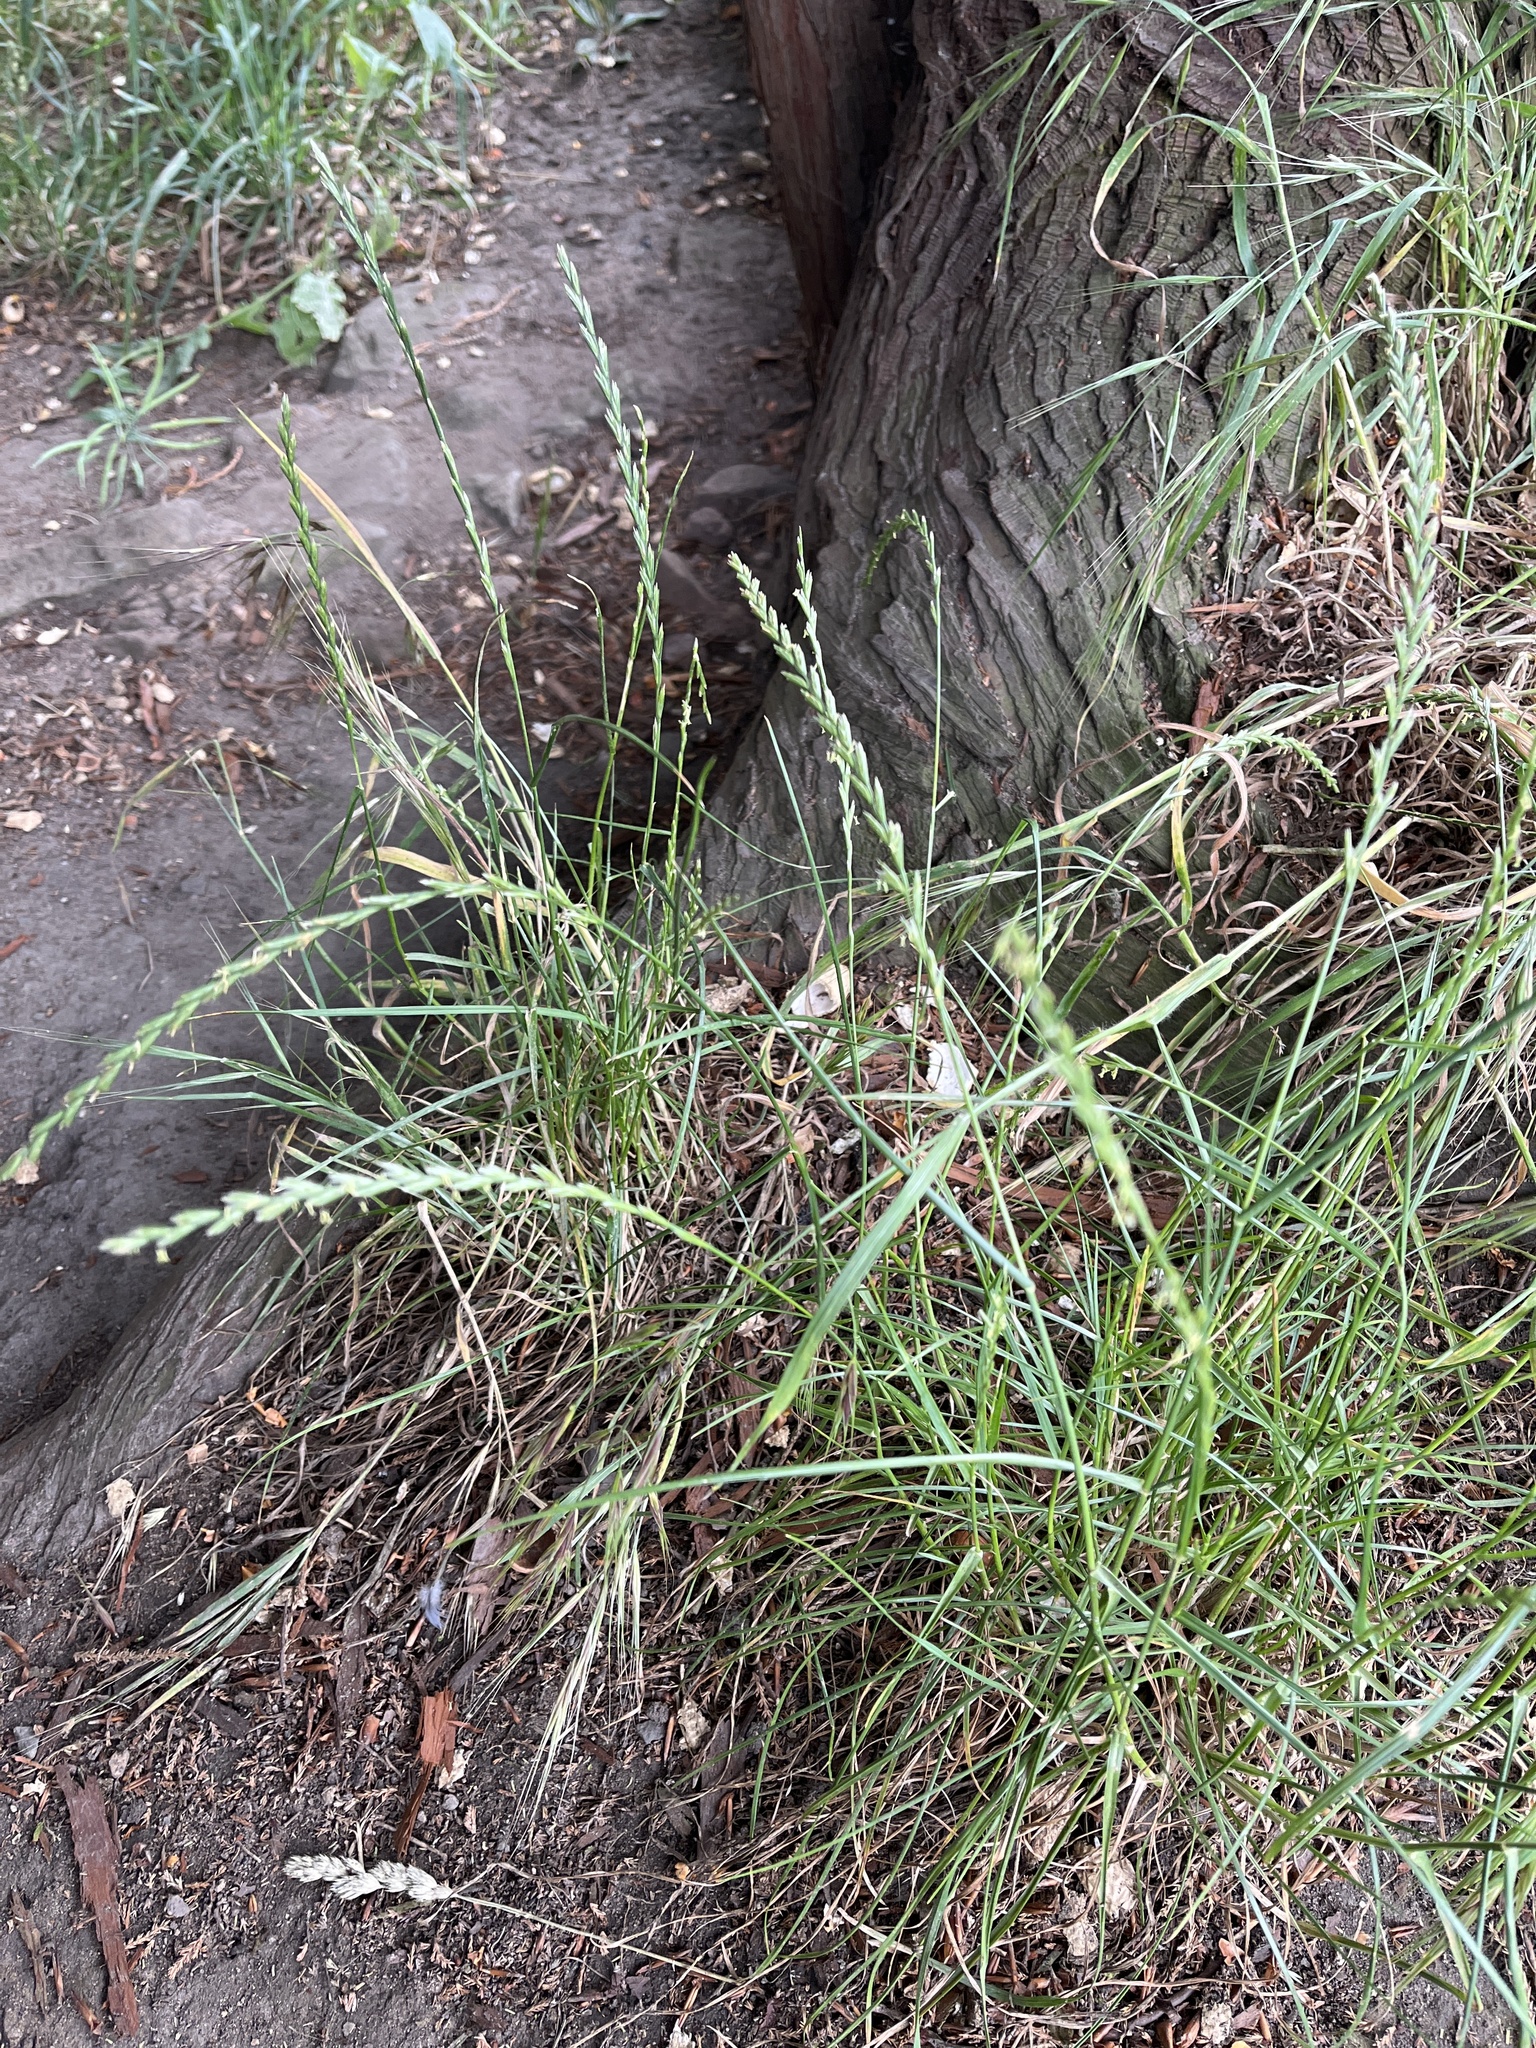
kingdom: Plantae
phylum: Tracheophyta
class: Liliopsida
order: Poales
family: Poaceae
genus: Lolium
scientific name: Lolium perenne
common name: Perennial ryegrass
